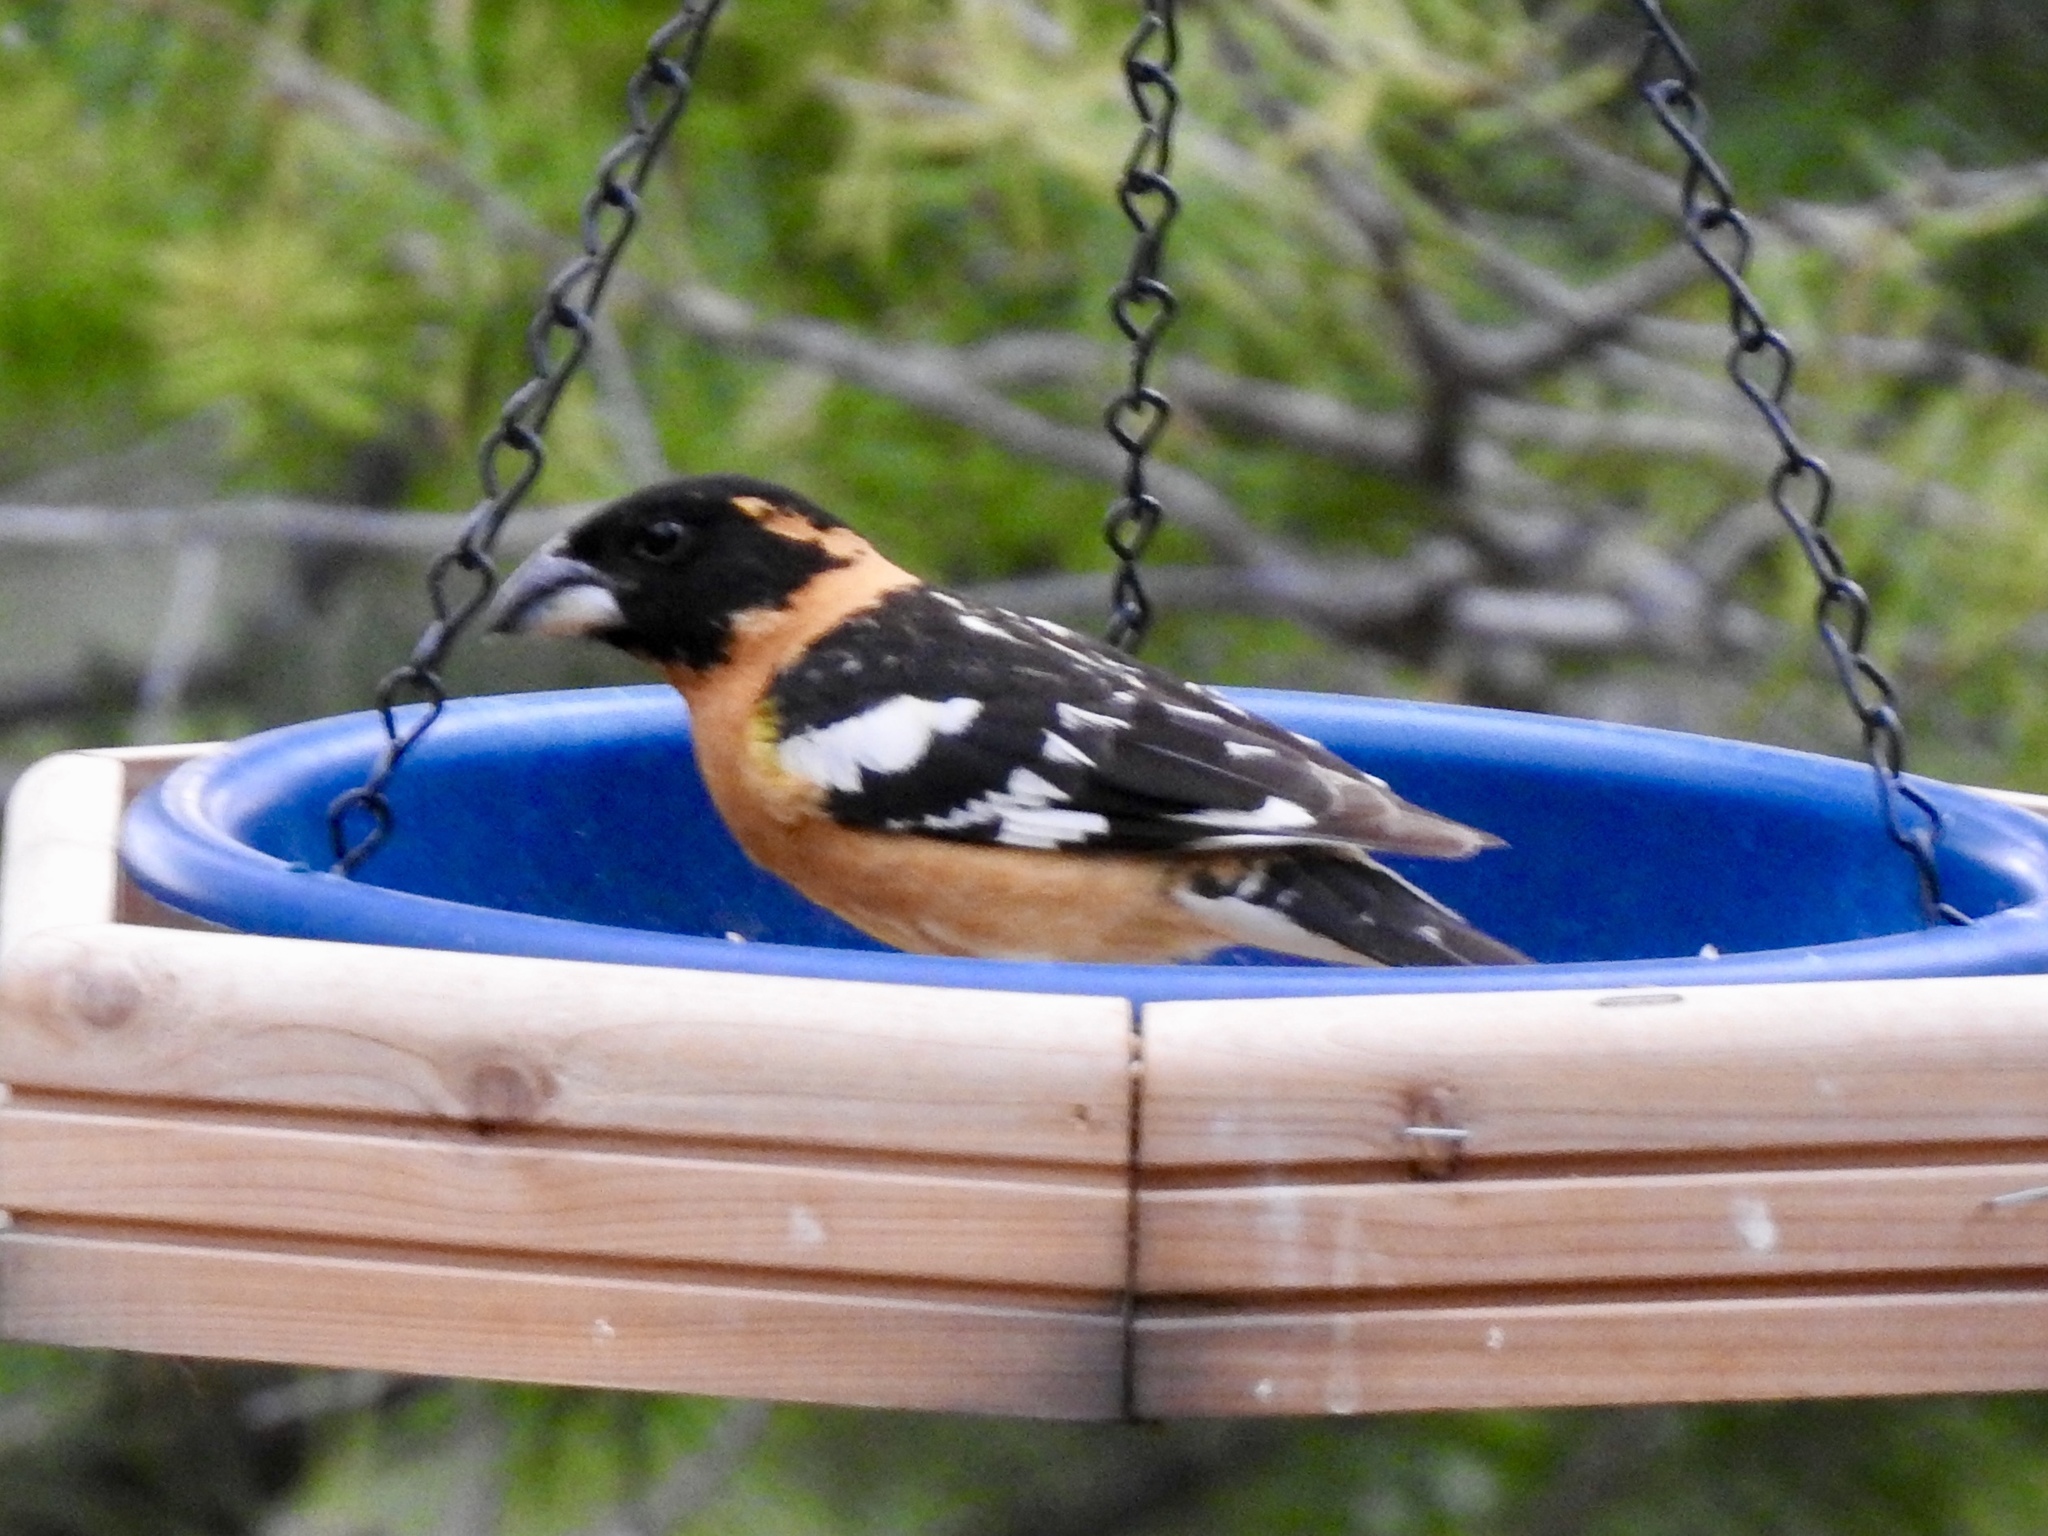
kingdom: Animalia
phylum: Chordata
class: Aves
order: Passeriformes
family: Cardinalidae
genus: Pheucticus
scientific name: Pheucticus melanocephalus
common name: Black-headed grosbeak
